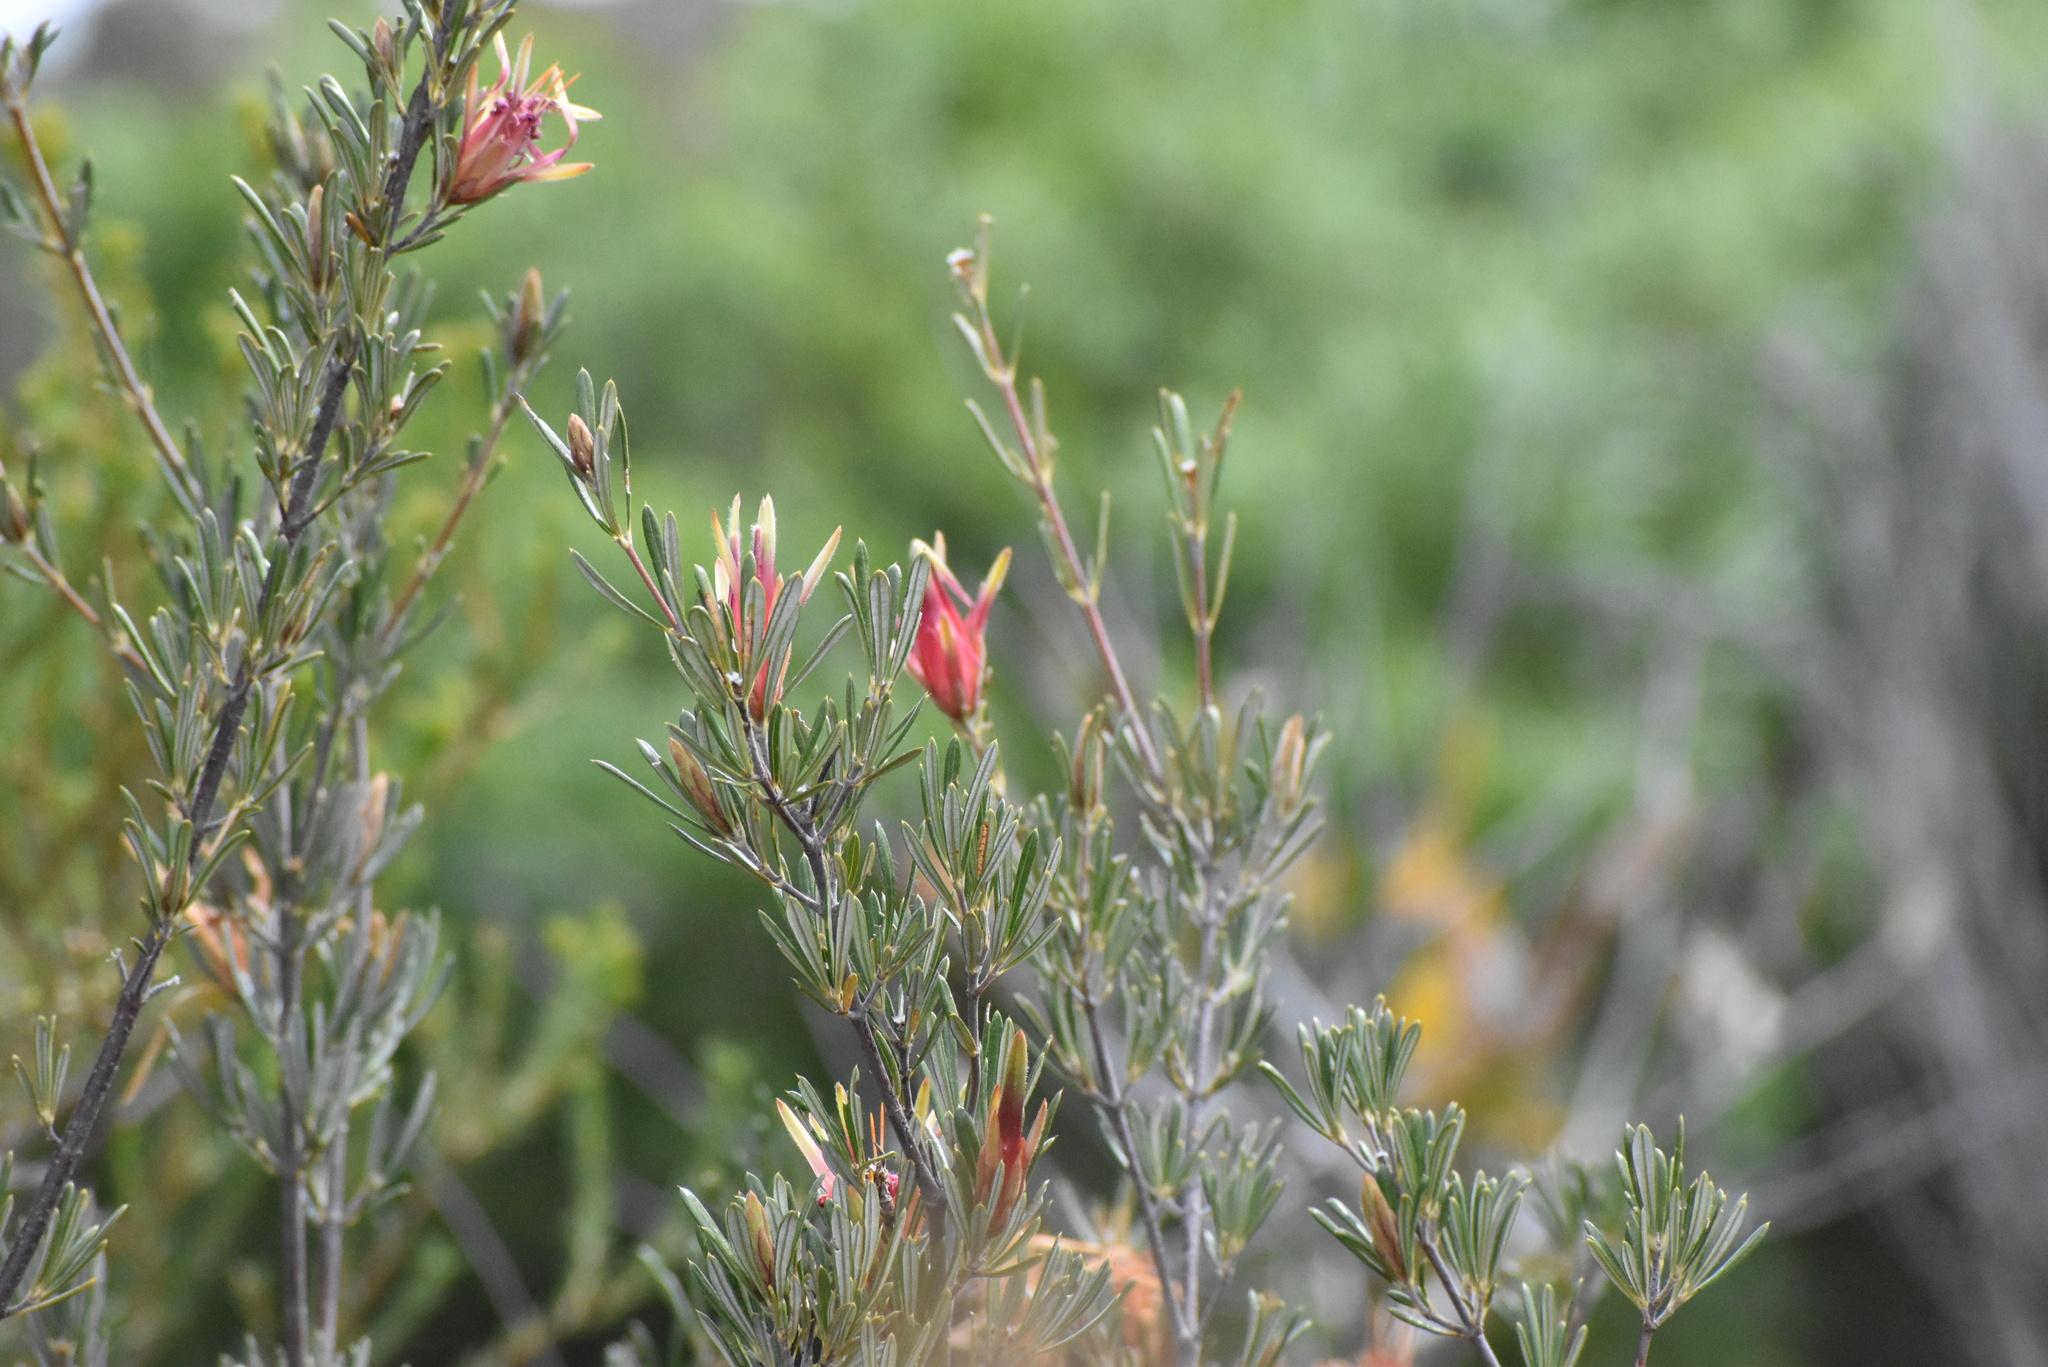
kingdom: Plantae
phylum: Tracheophyta
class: Magnoliopsida
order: Proteales
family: Proteaceae
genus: Lambertia
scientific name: Lambertia formosa
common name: Mountain-devil
